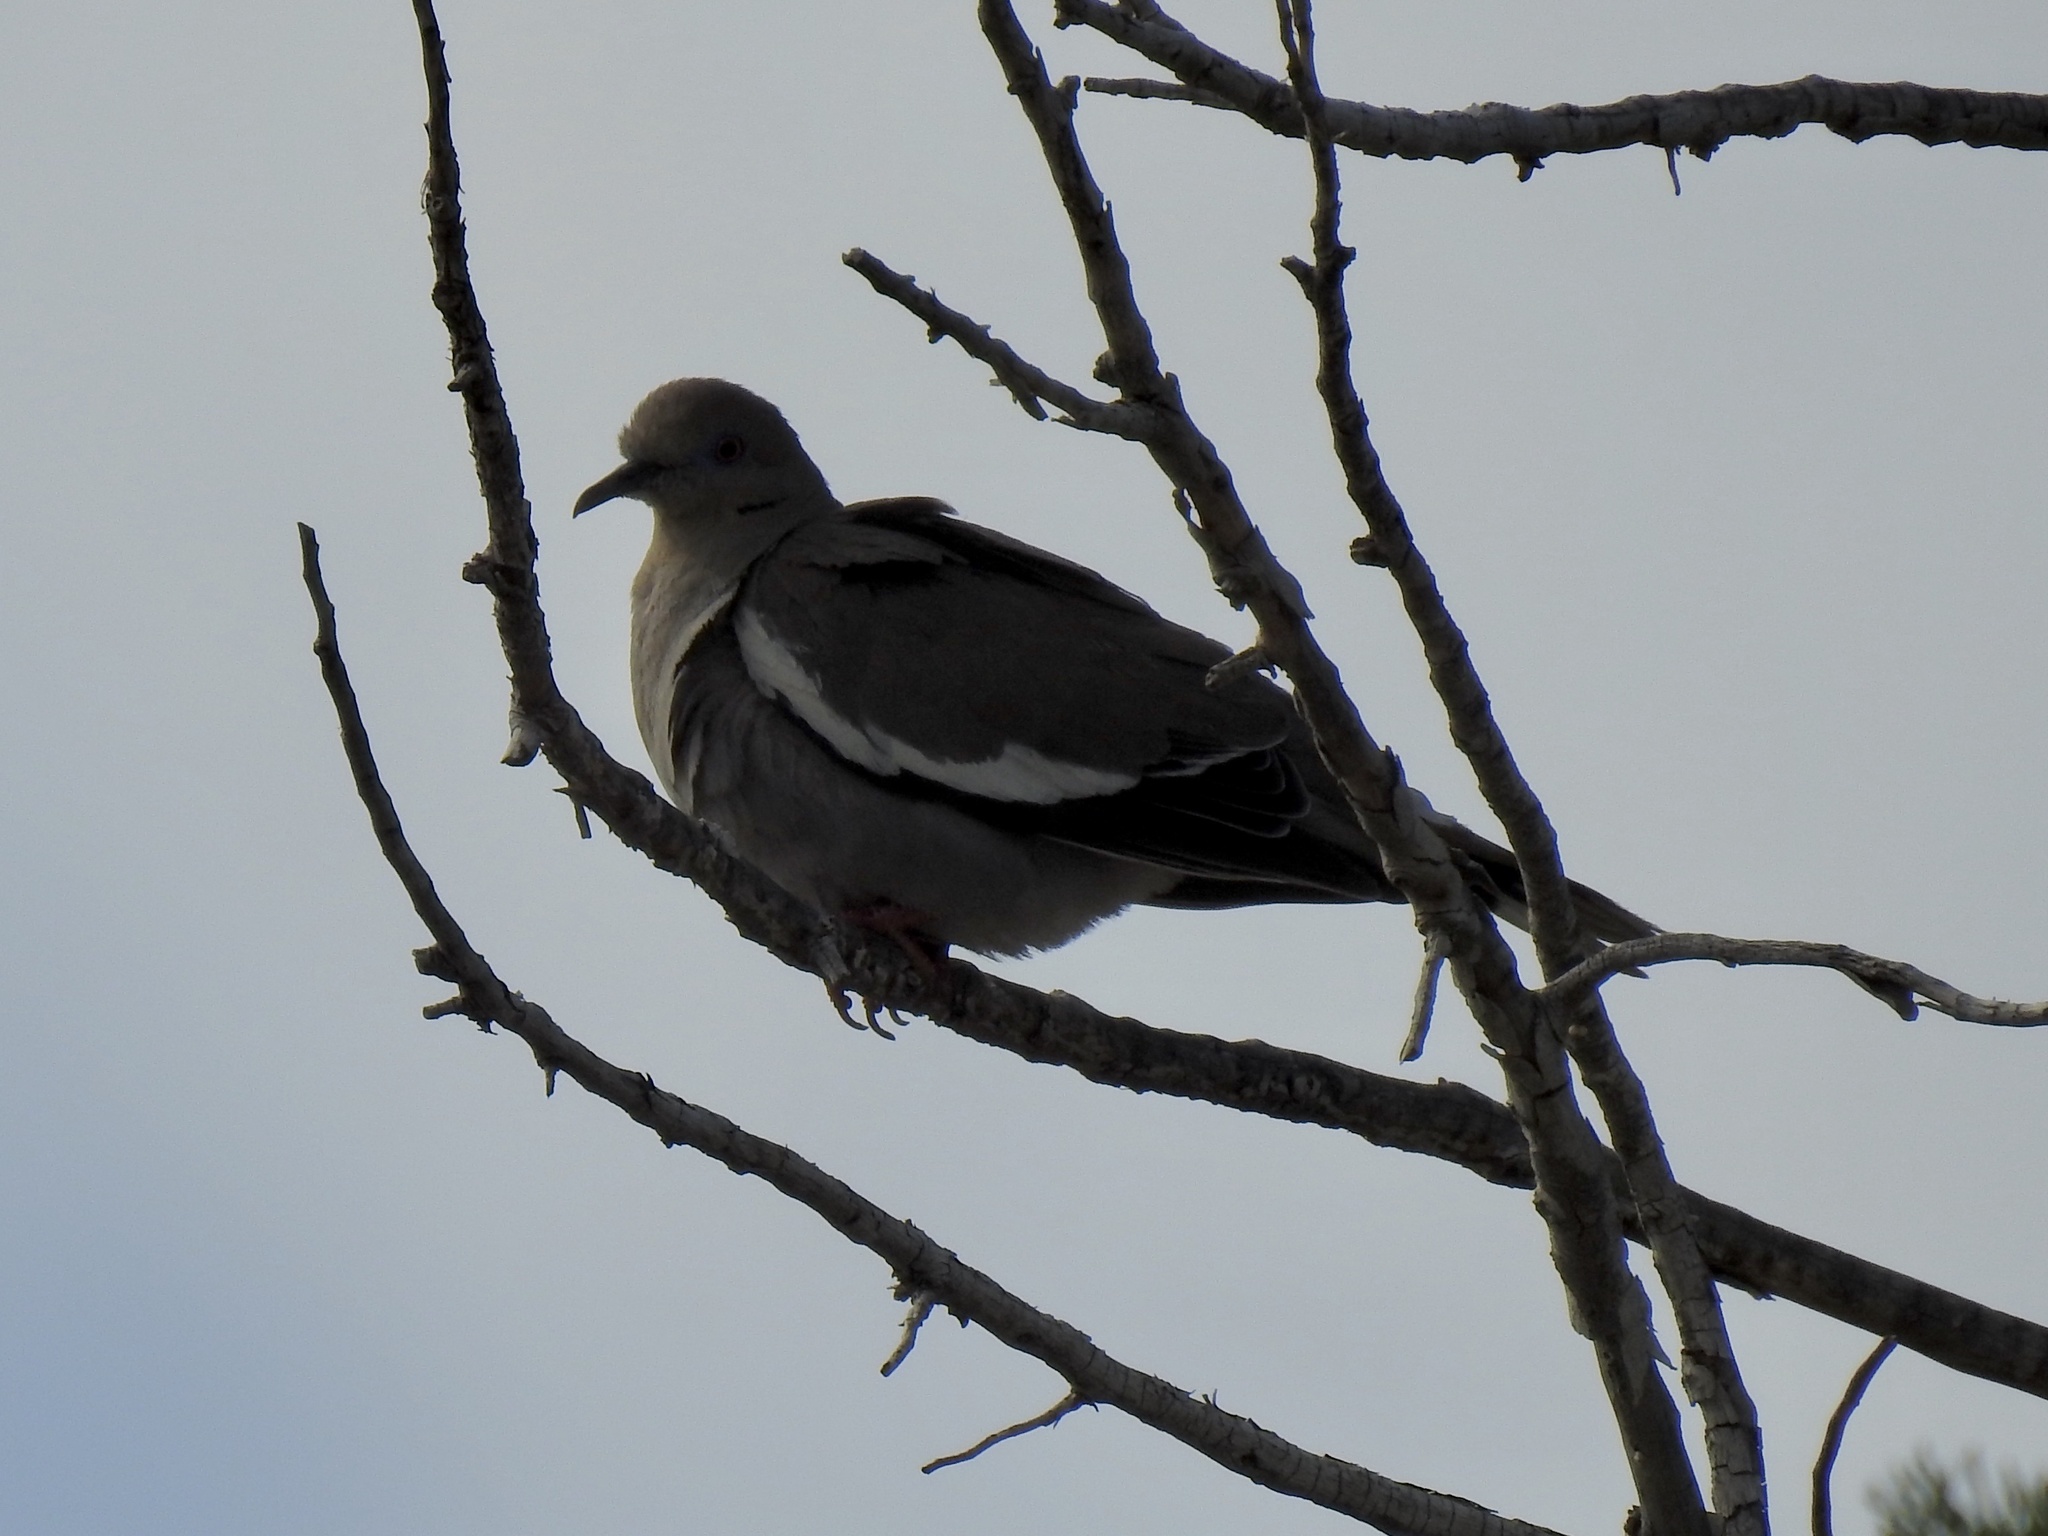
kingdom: Animalia
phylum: Chordata
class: Aves
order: Columbiformes
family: Columbidae
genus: Zenaida
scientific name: Zenaida asiatica
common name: White-winged dove
